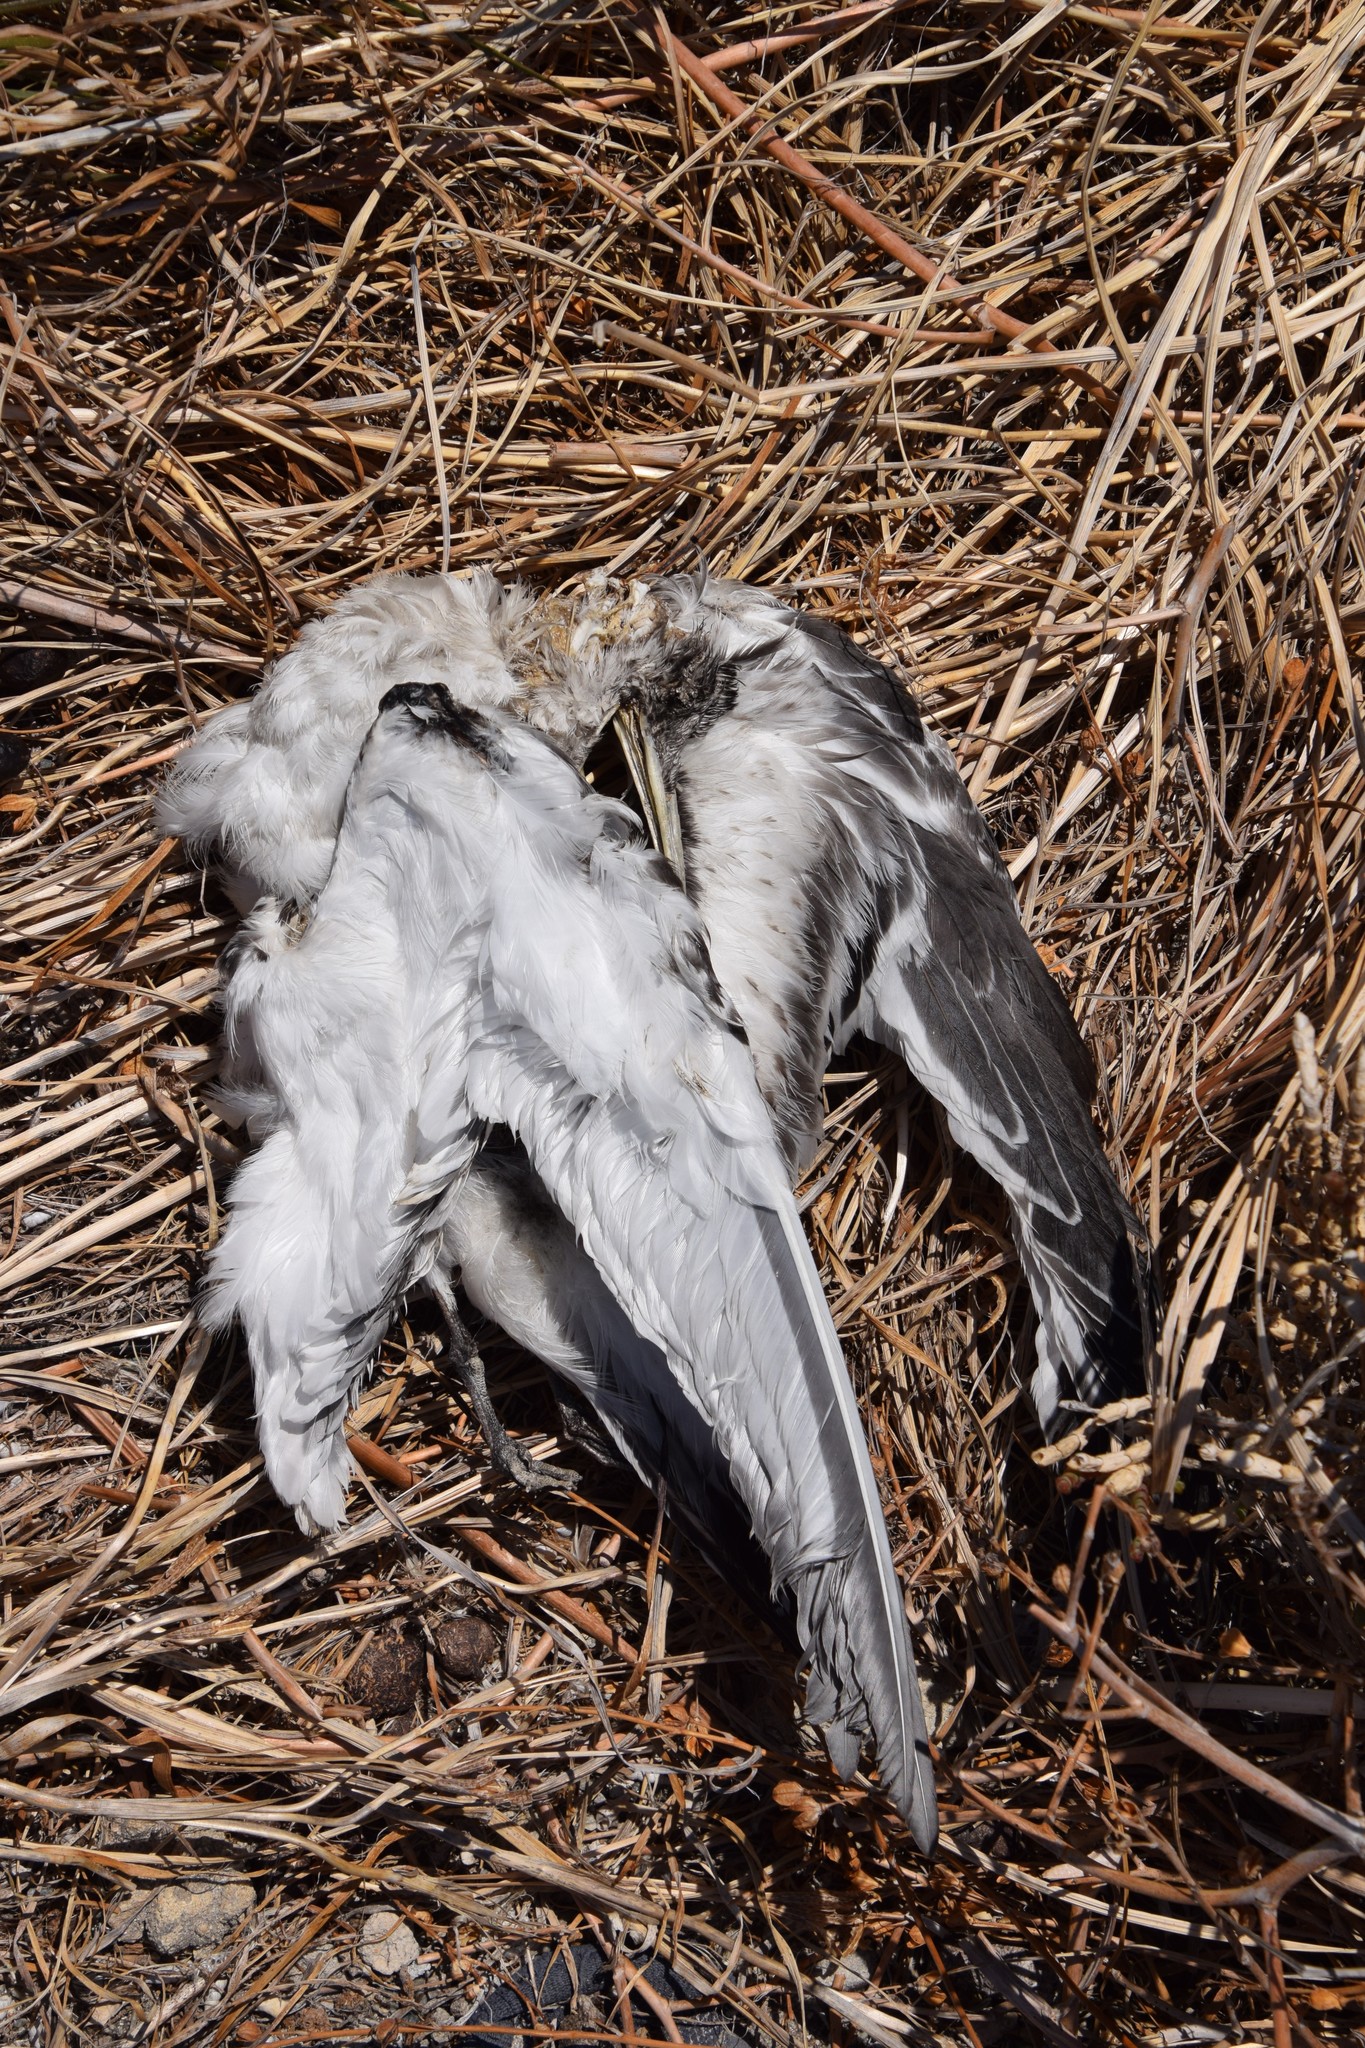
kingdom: Animalia
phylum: Chordata
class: Aves
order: Charadriiformes
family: Laridae
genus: Thalasseus
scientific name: Thalasseus bergii
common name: Greater crested tern
